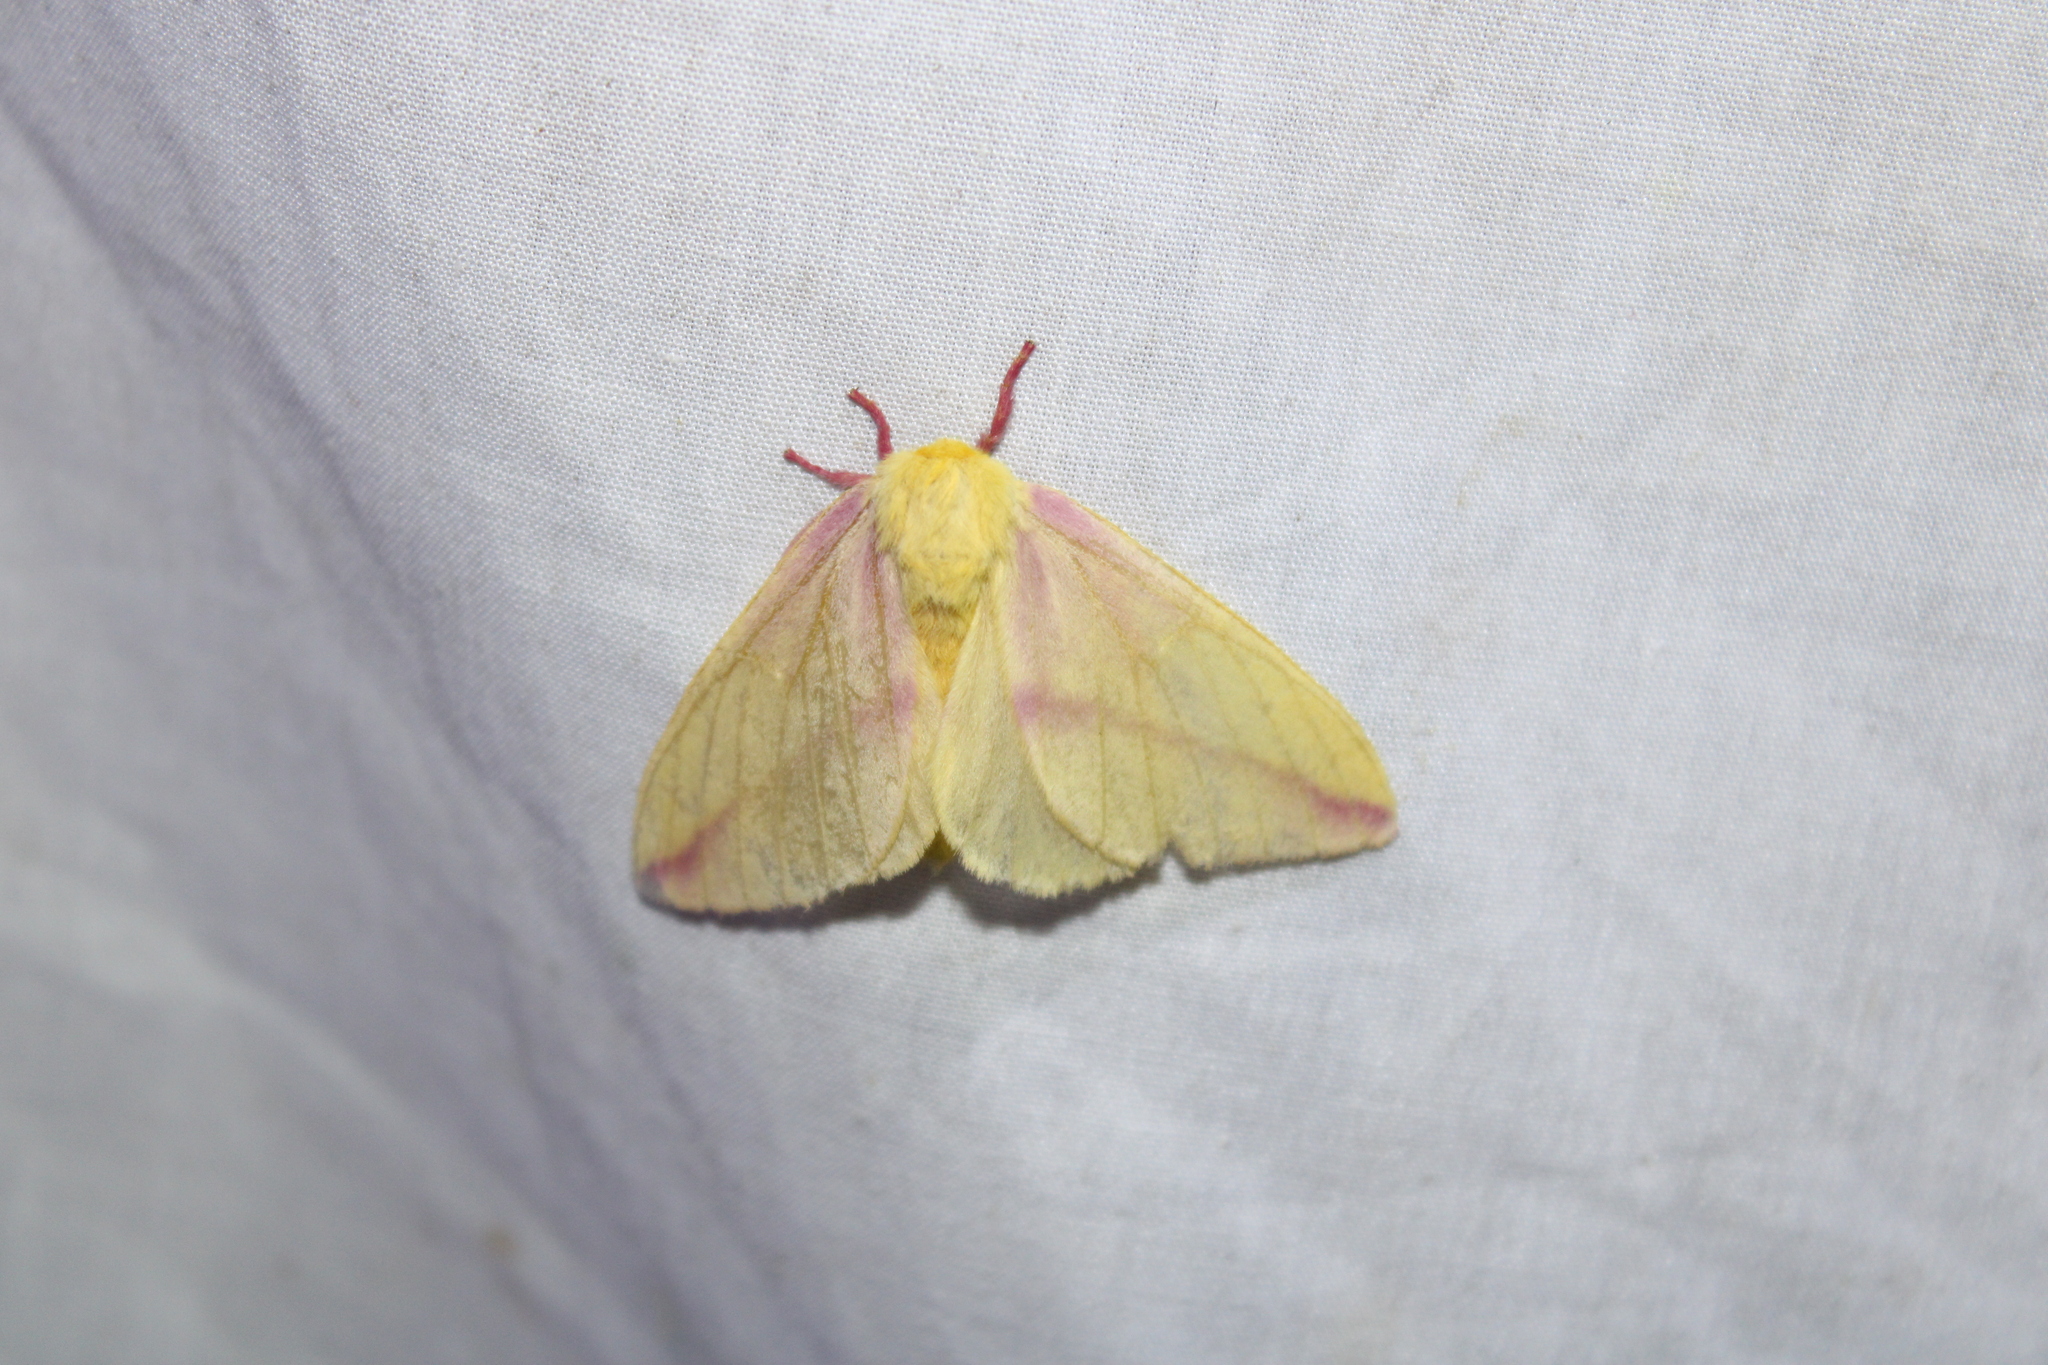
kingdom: Animalia
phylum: Arthropoda
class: Insecta
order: Lepidoptera
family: Saturniidae
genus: Dryocampa
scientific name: Dryocampa rubicunda
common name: Rosy maple moth
